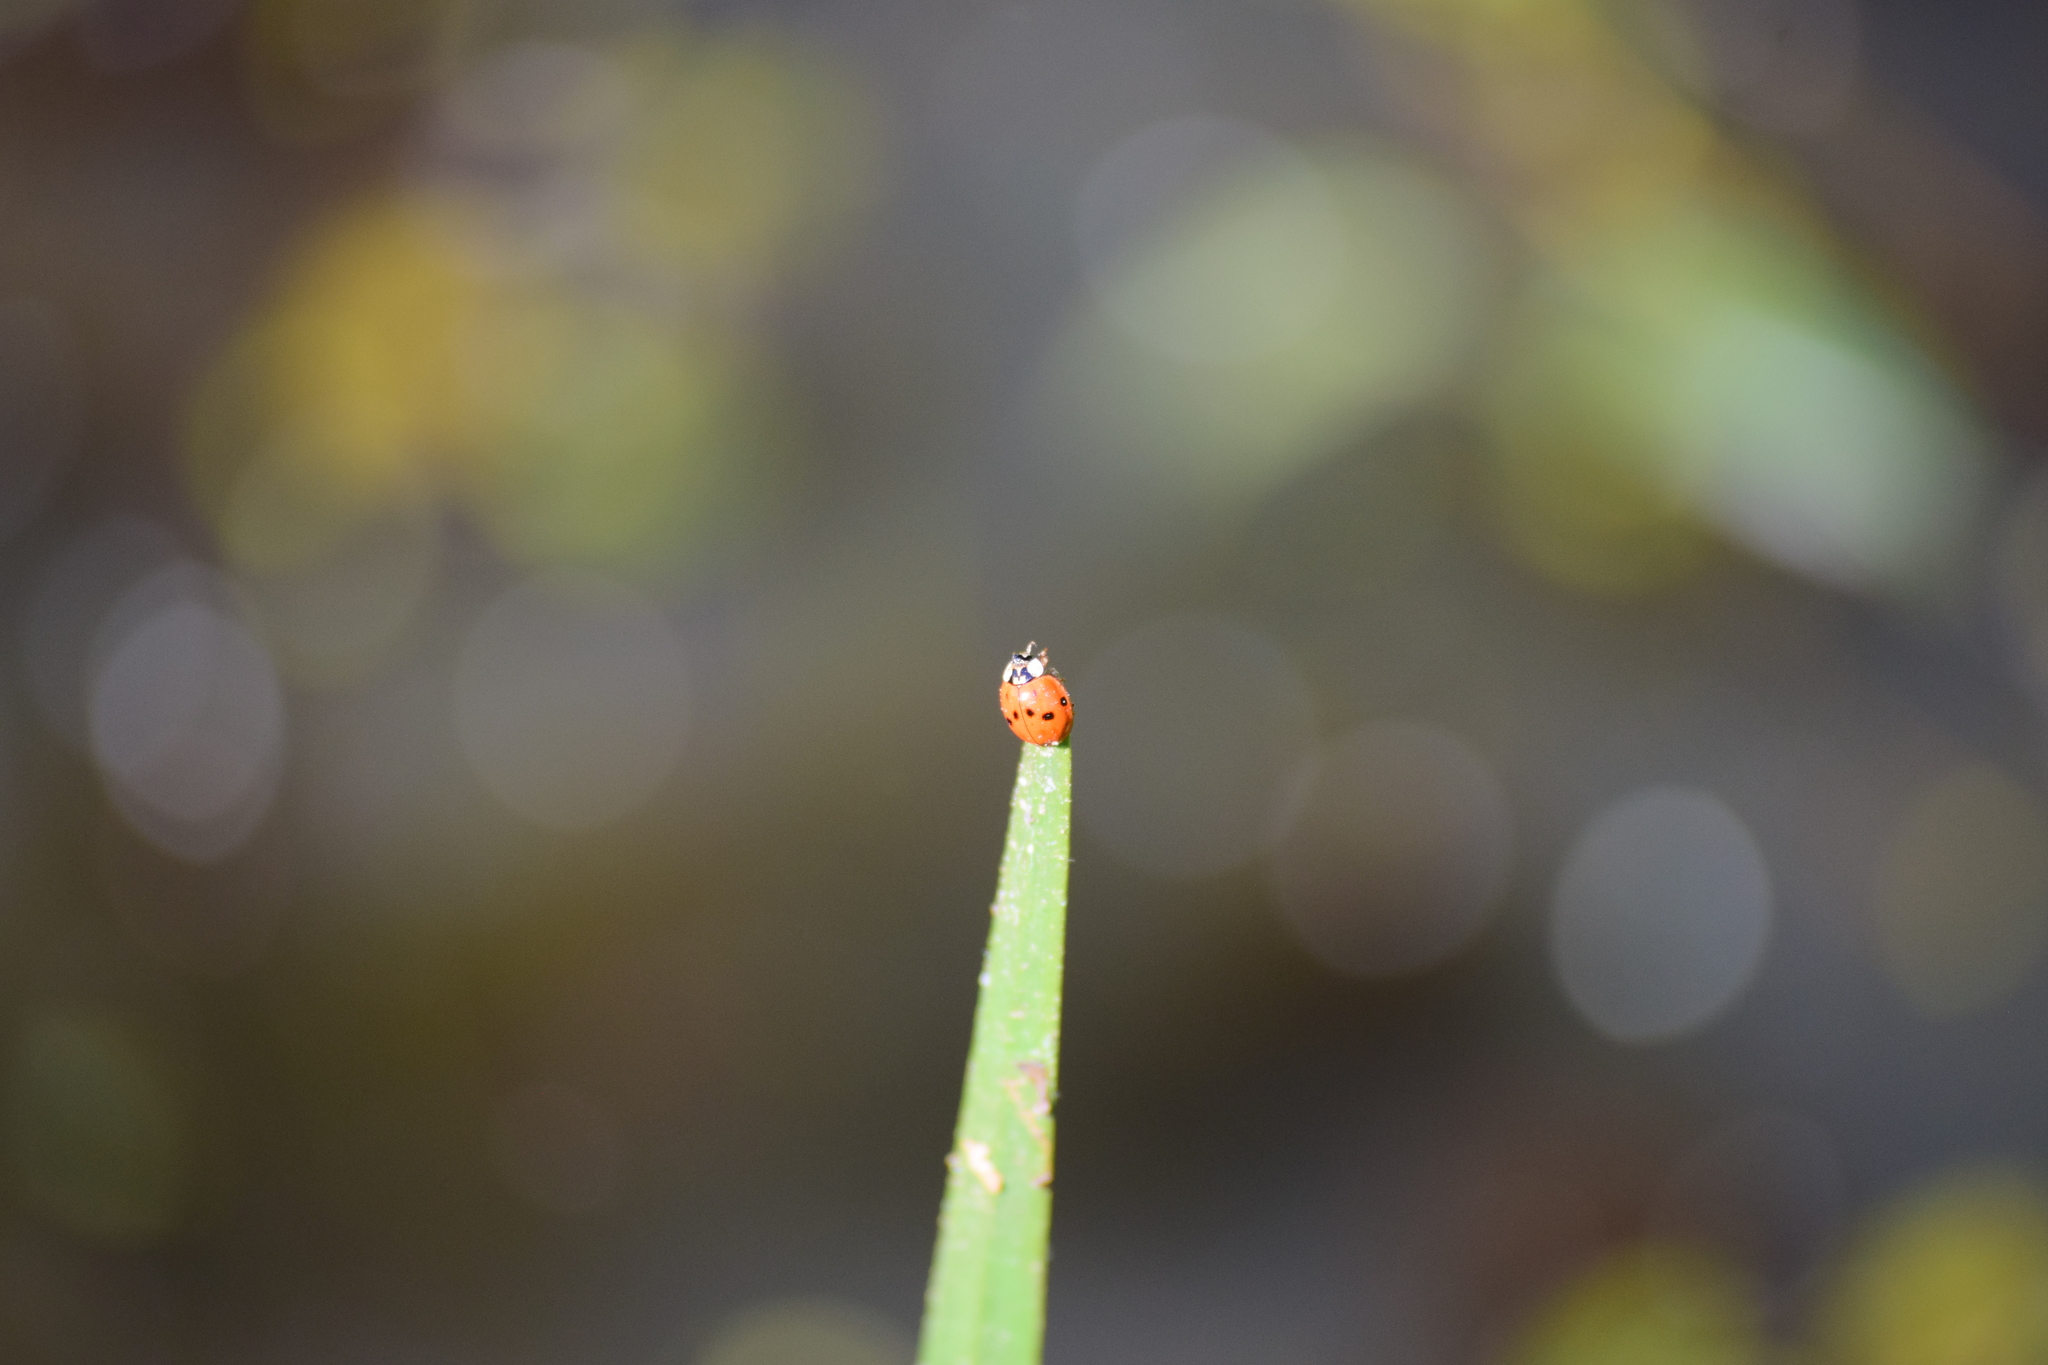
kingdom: Animalia
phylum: Arthropoda
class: Insecta
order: Coleoptera
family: Coccinellidae
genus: Harmonia
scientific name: Harmonia axyridis
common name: Harlequin ladybird
